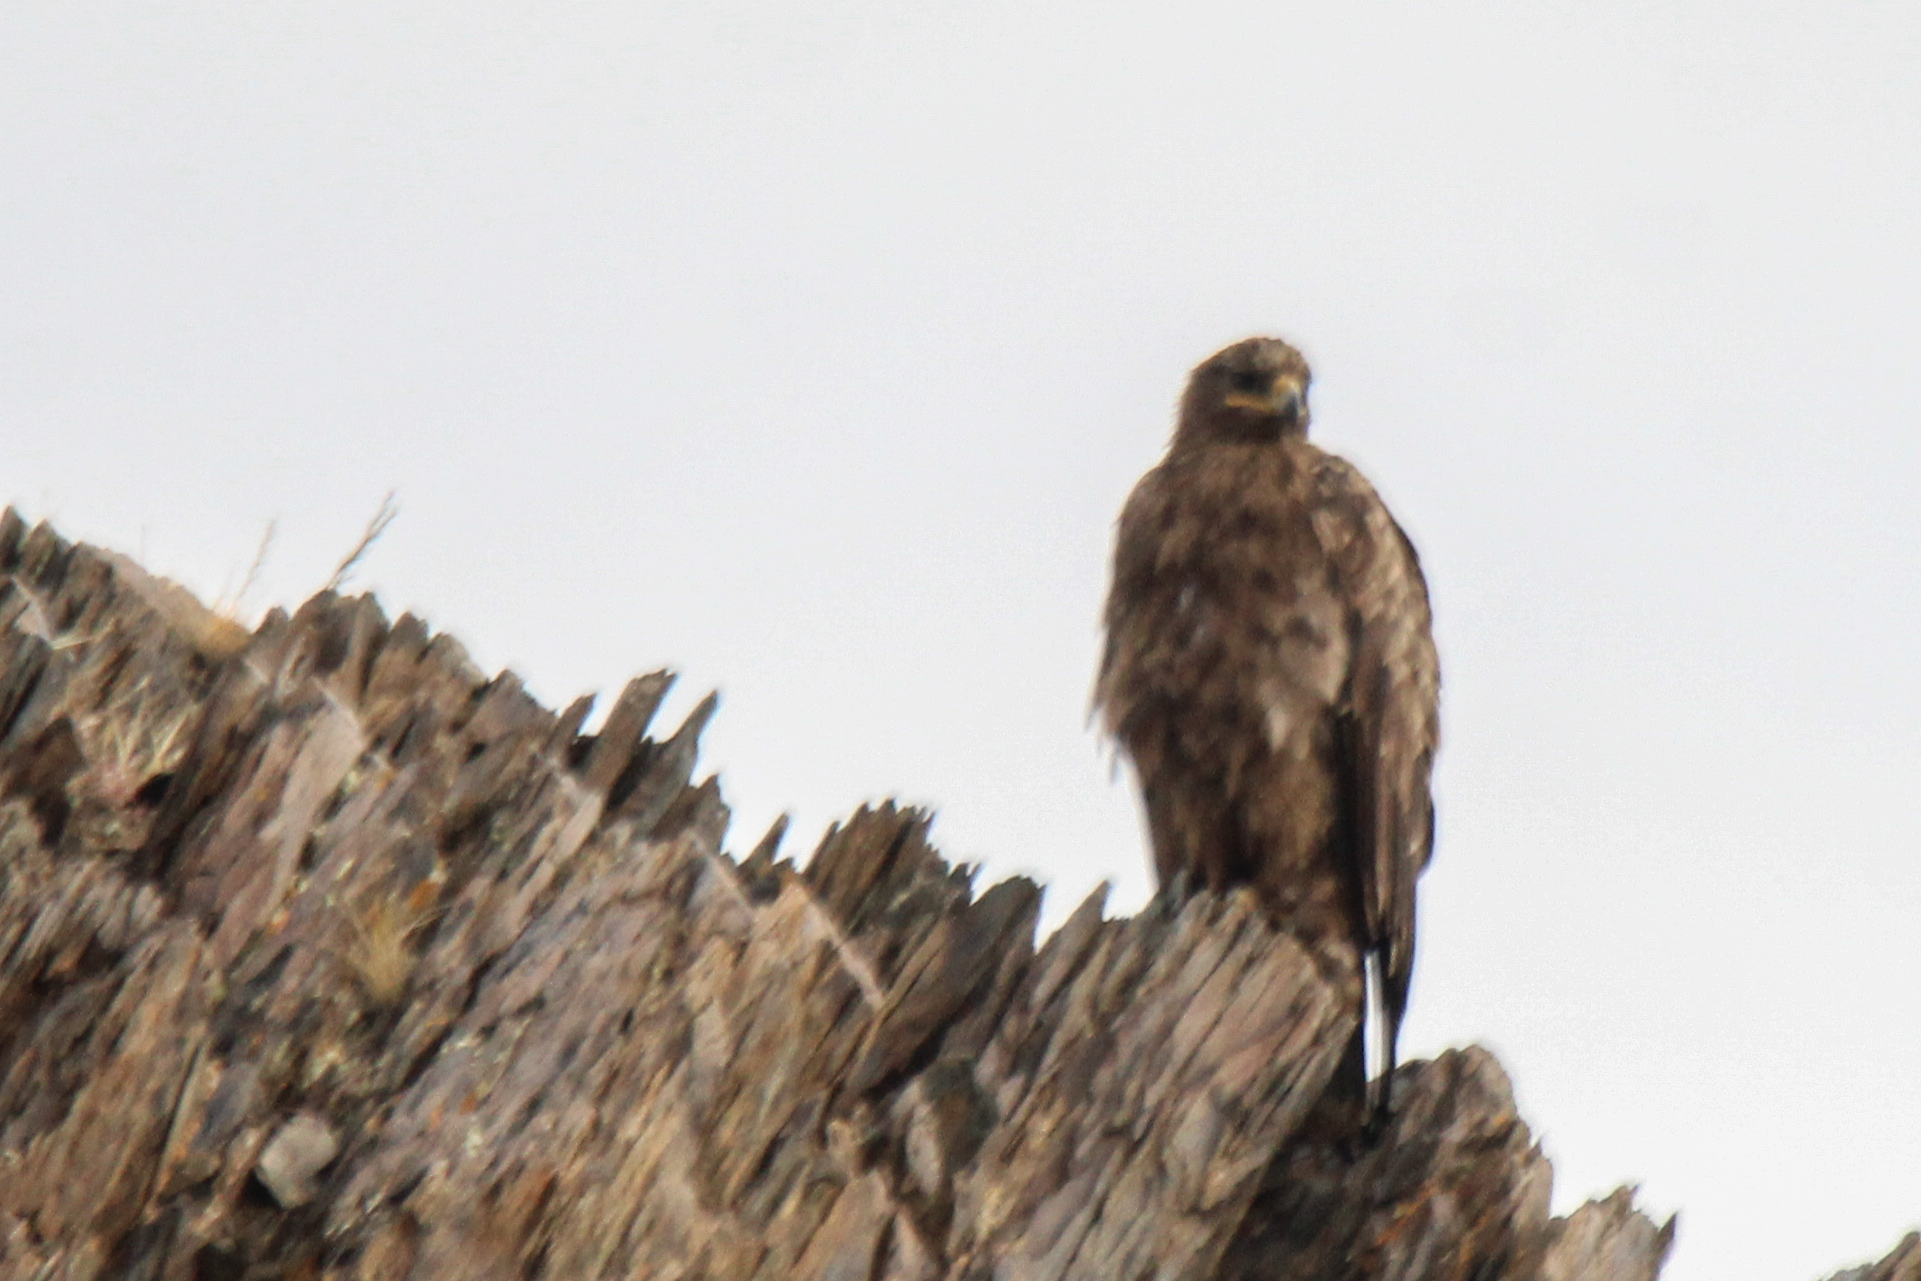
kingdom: Animalia
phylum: Chordata
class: Aves
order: Accipitriformes
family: Accipitridae
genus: Aquila
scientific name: Aquila nipalensis
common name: Steppe eagle
